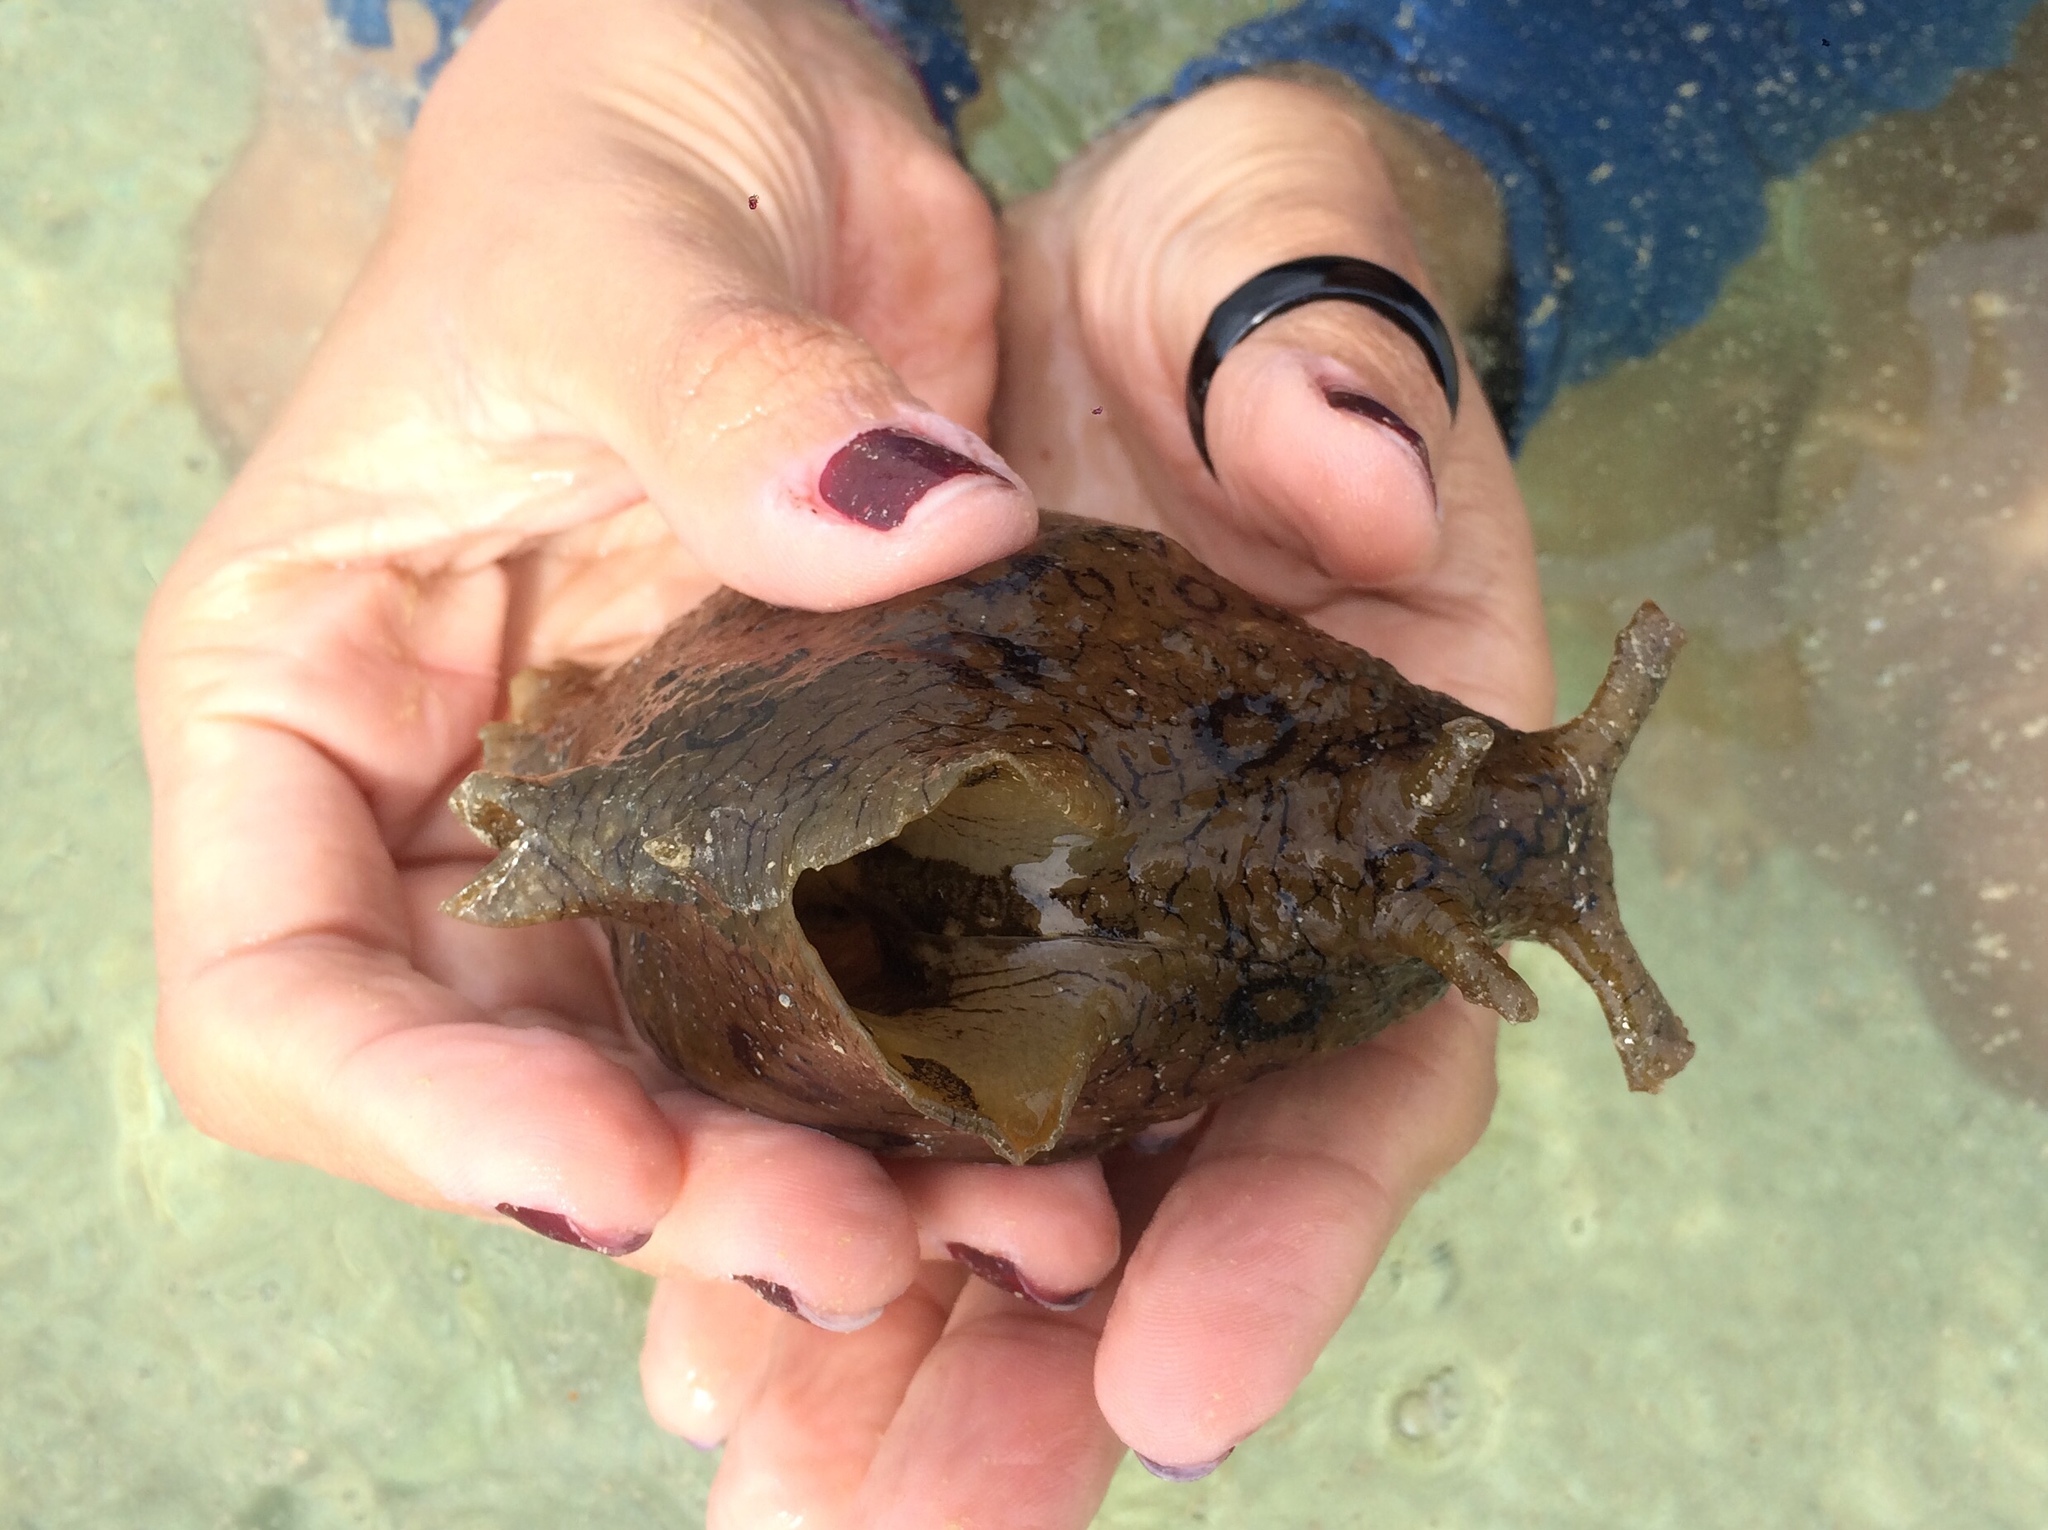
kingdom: Animalia
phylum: Mollusca
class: Gastropoda
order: Aplysiida
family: Aplysiidae
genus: Aplysia
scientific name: Aplysia dactylomela
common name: Large-spotted sea hare
